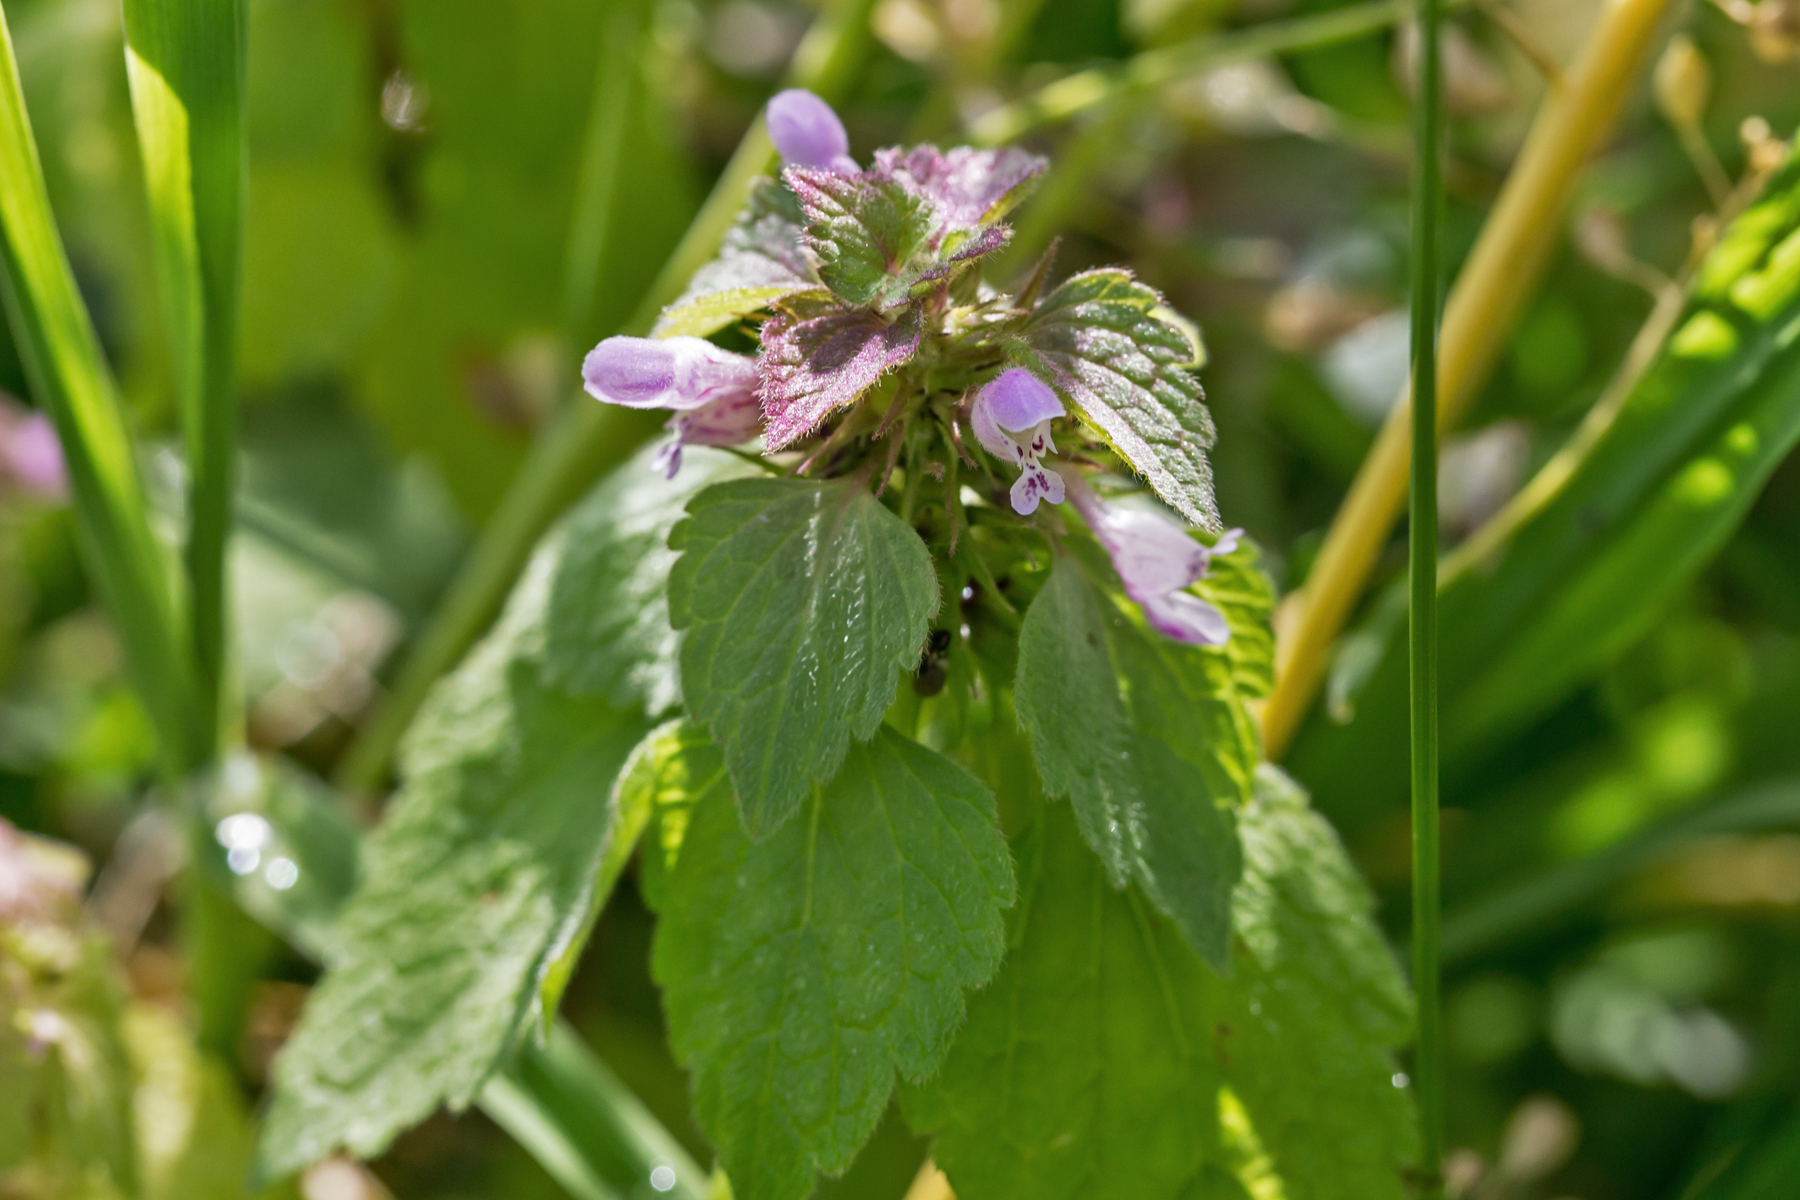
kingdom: Plantae
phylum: Tracheophyta
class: Magnoliopsida
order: Lamiales
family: Lamiaceae
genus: Lamium
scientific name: Lamium purpureum
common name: Red dead-nettle
